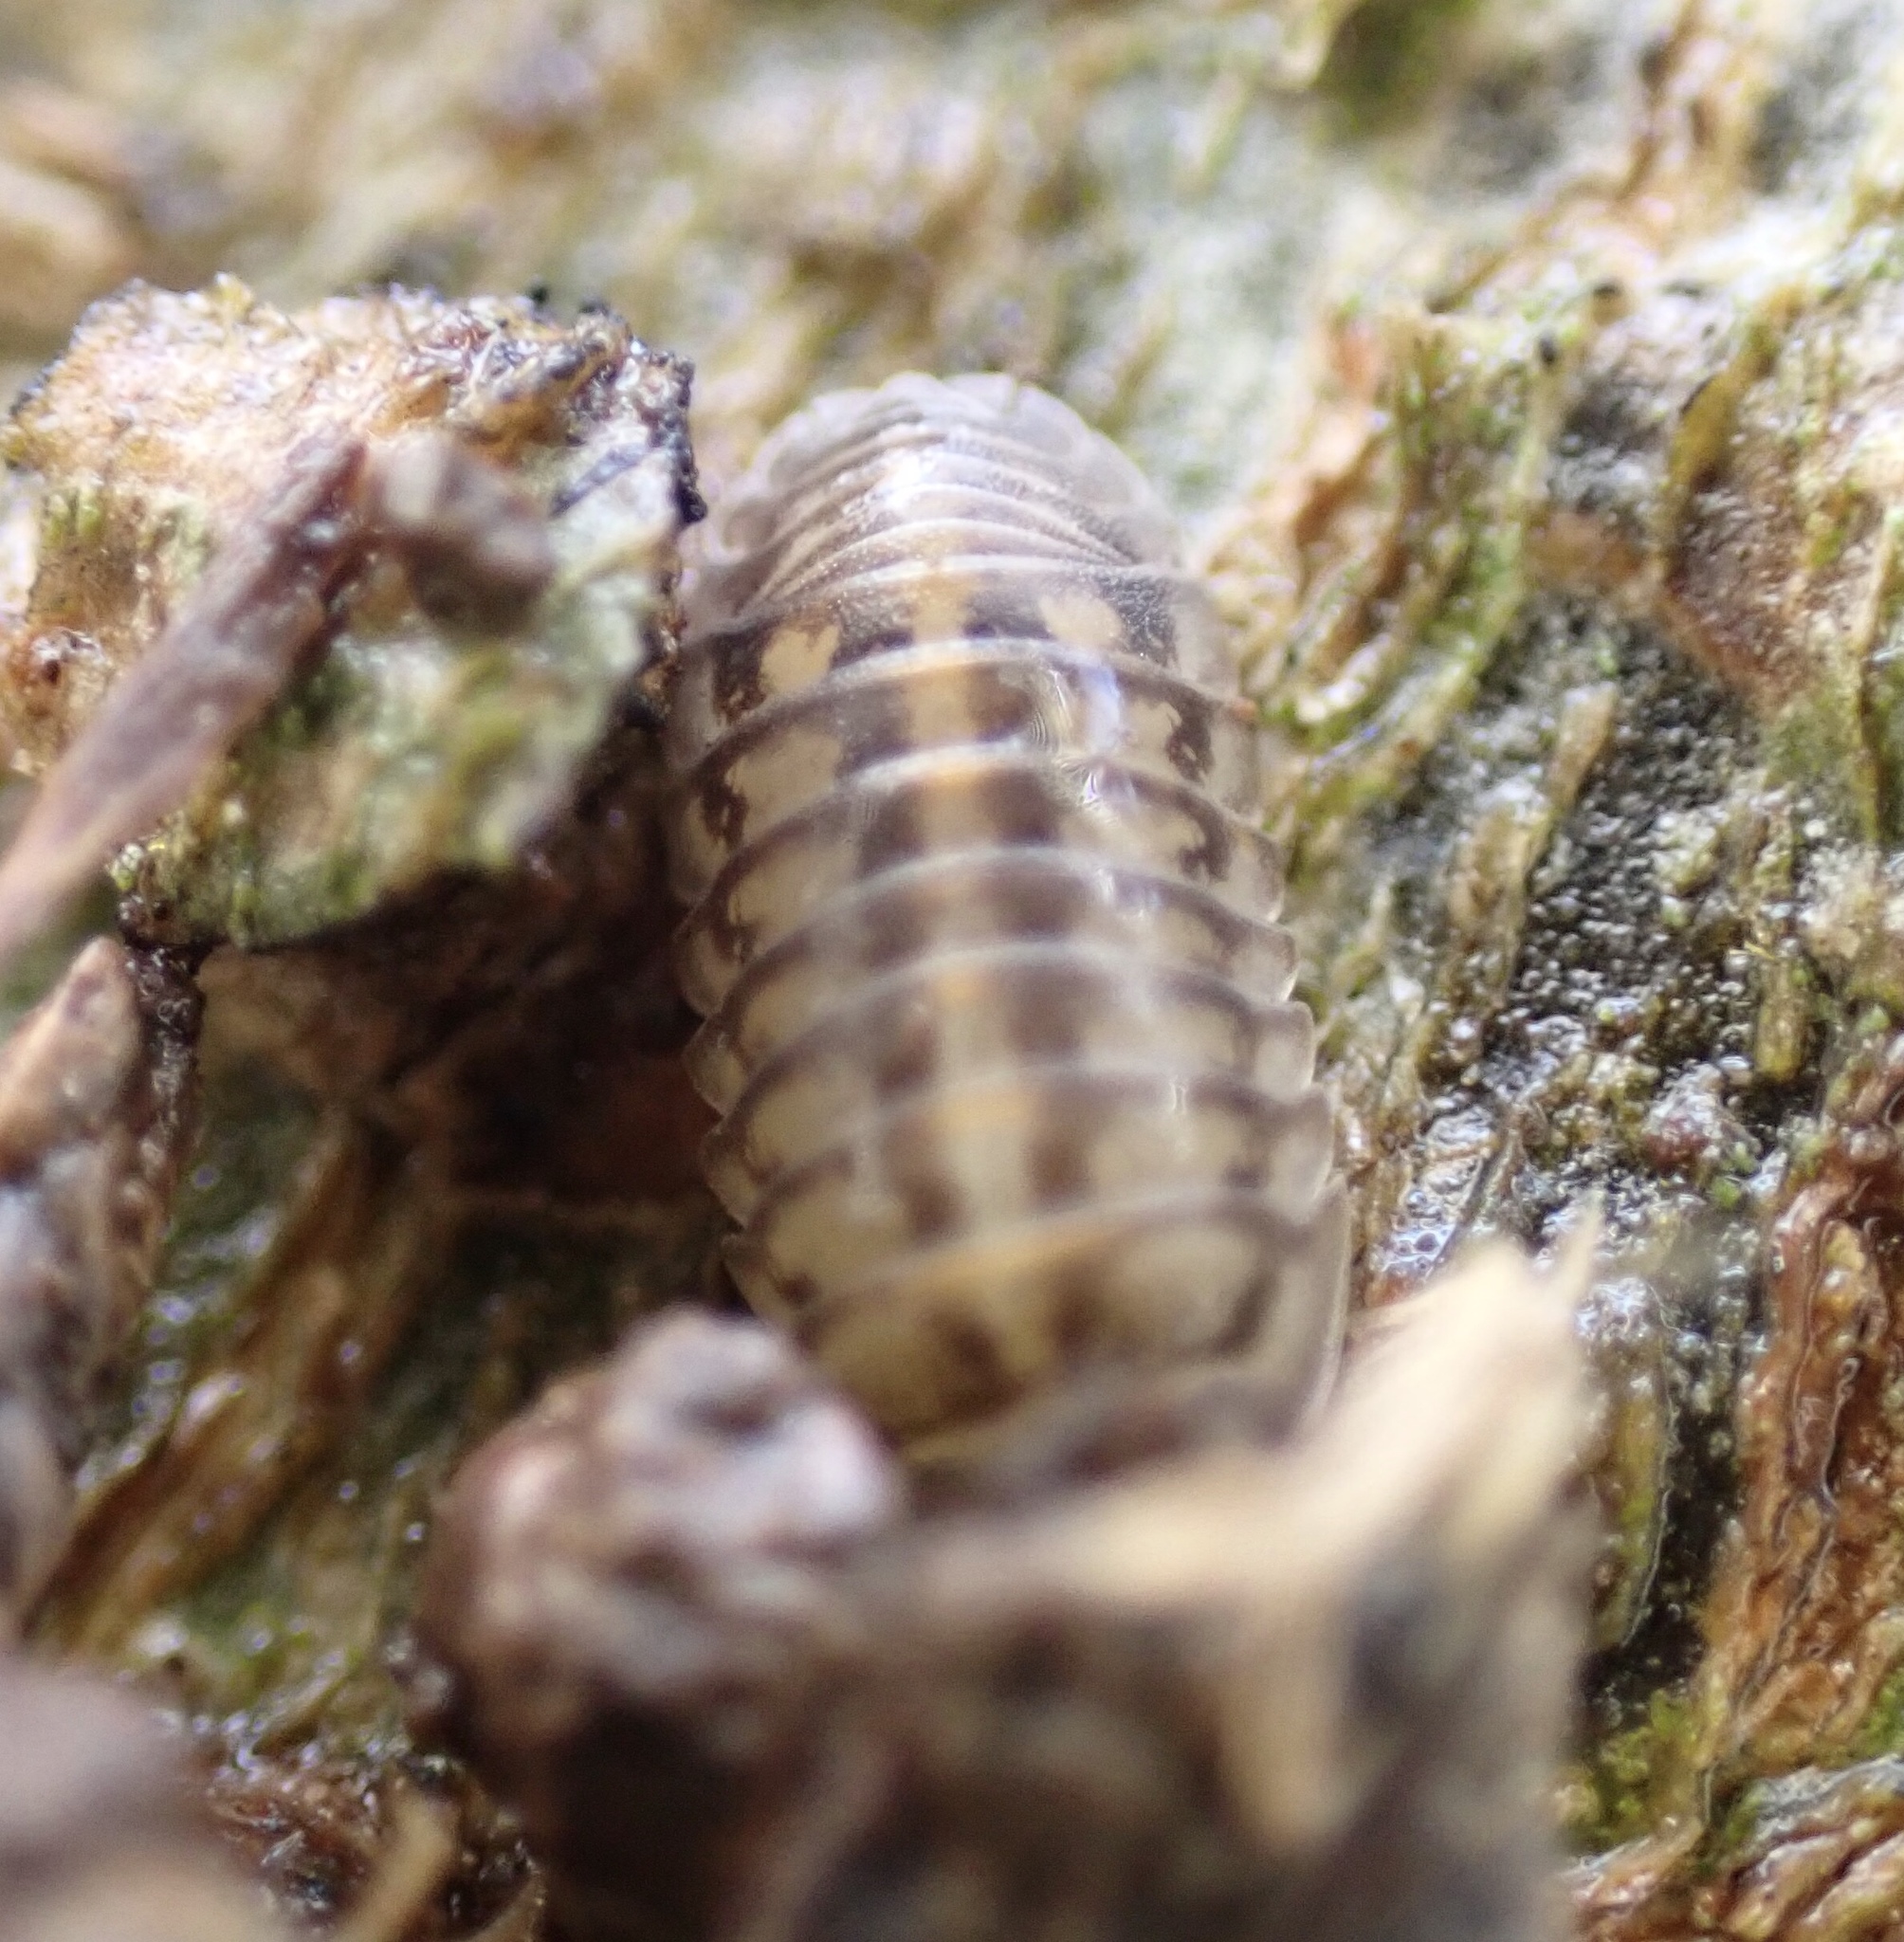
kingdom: Animalia
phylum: Arthropoda
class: Malacostraca
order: Isopoda
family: Armadillidiidae
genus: Armadillidium
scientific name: Armadillidium nasatum
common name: Isopod
